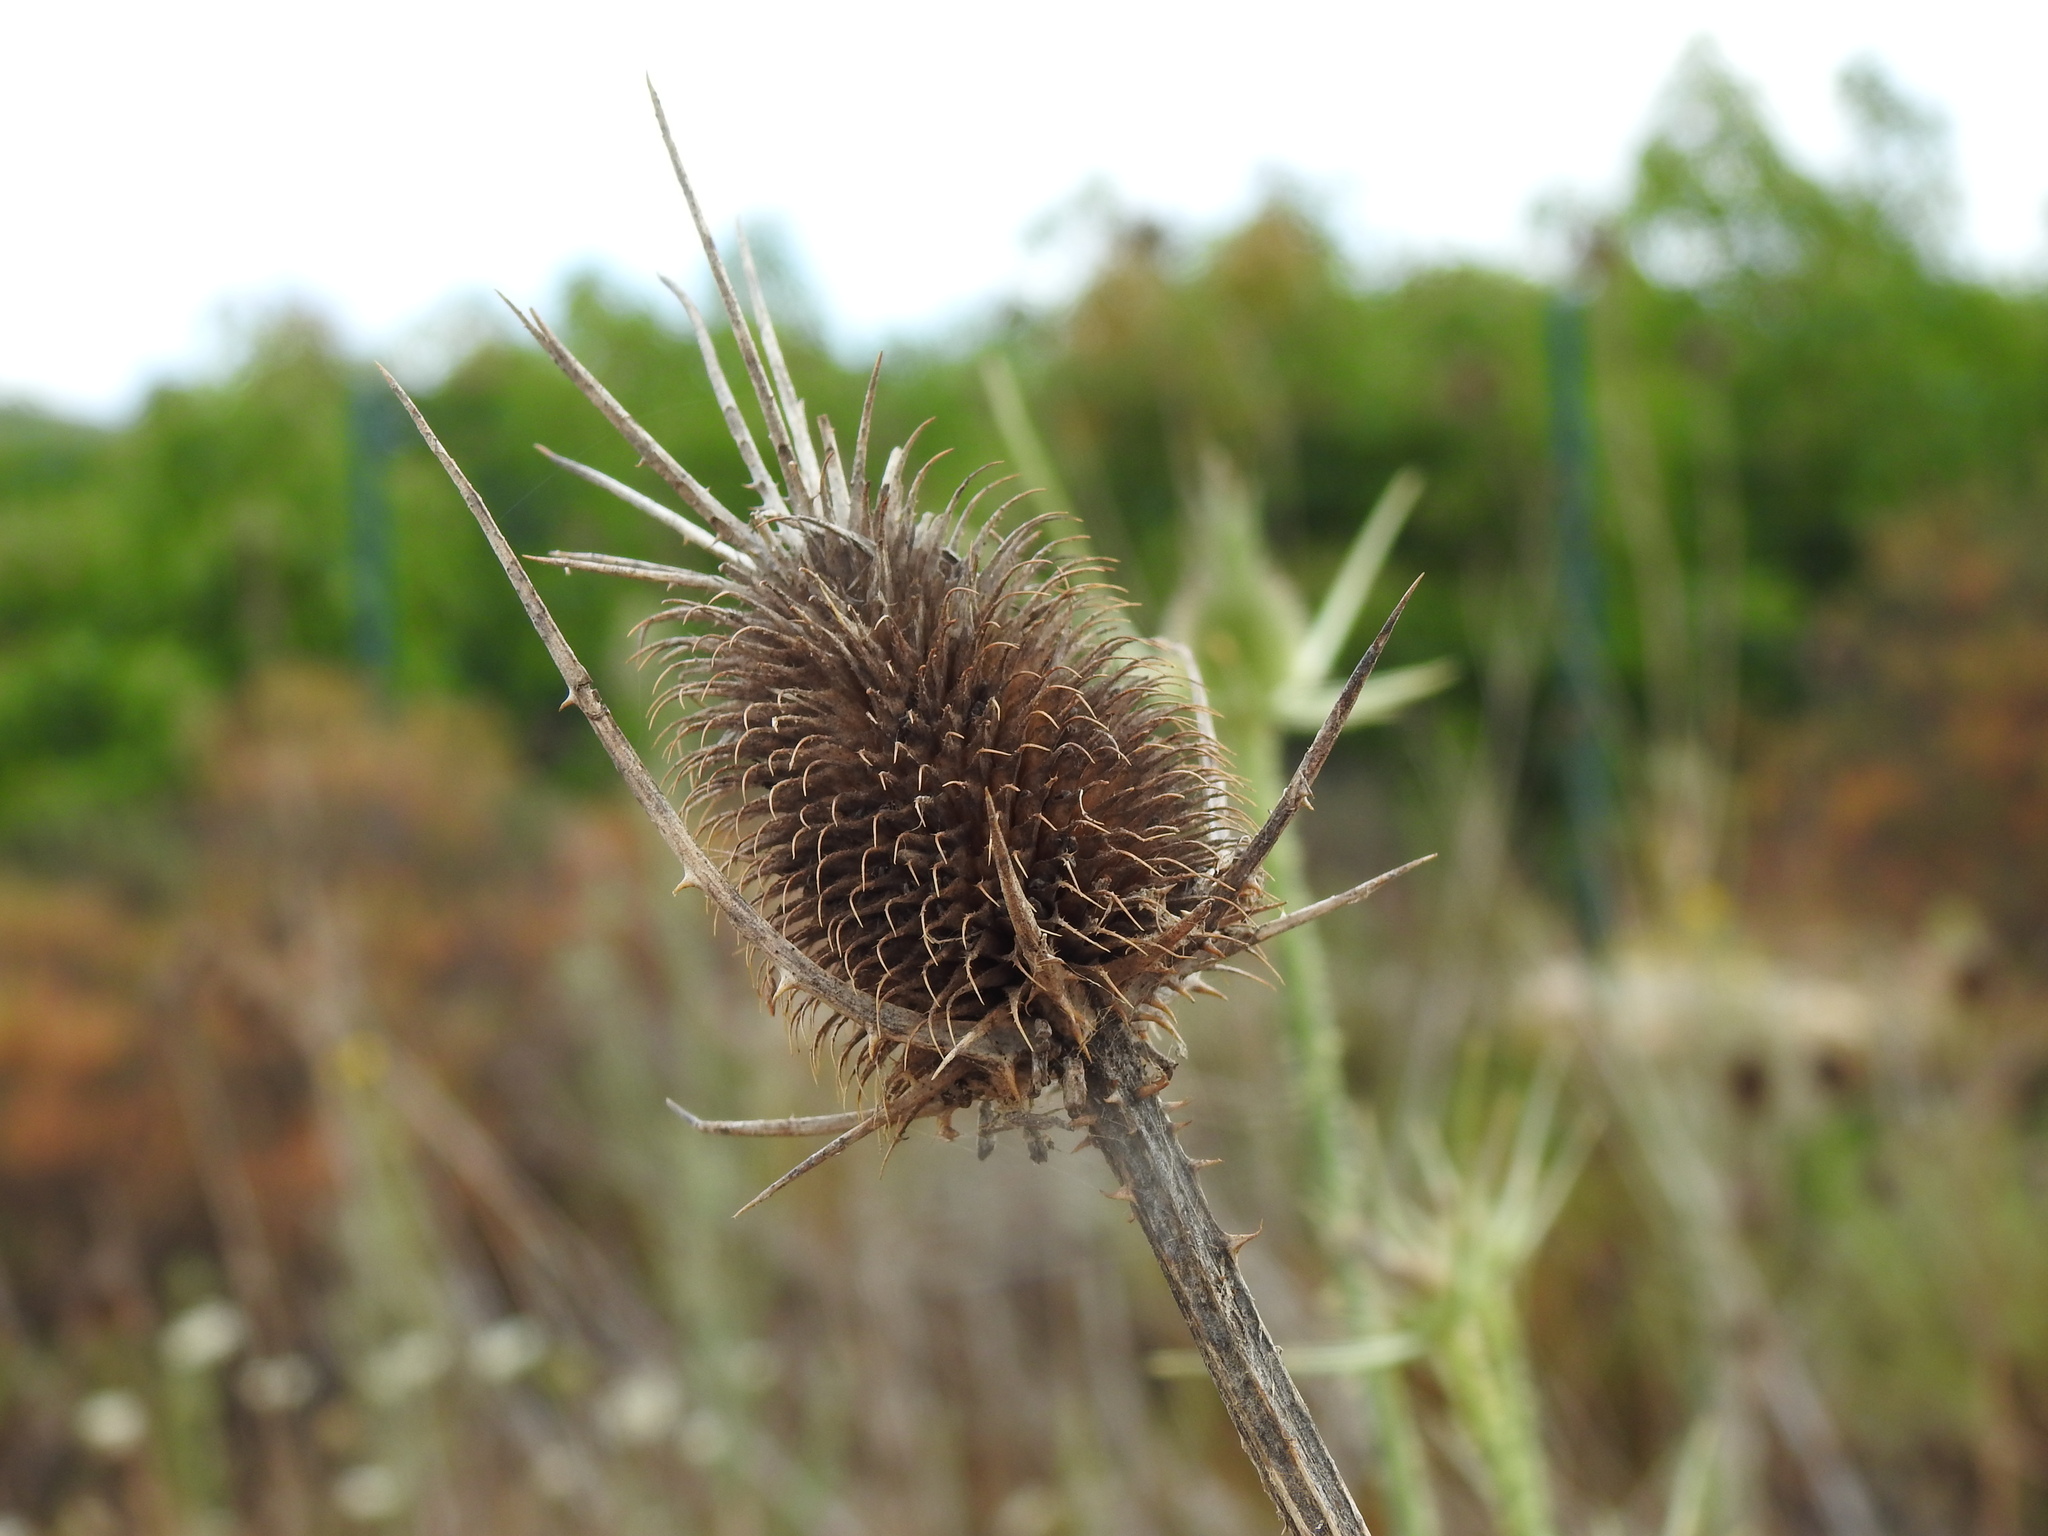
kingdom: Plantae
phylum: Tracheophyta
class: Magnoliopsida
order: Dipsacales
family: Caprifoliaceae
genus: Dipsacus
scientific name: Dipsacus comosus
